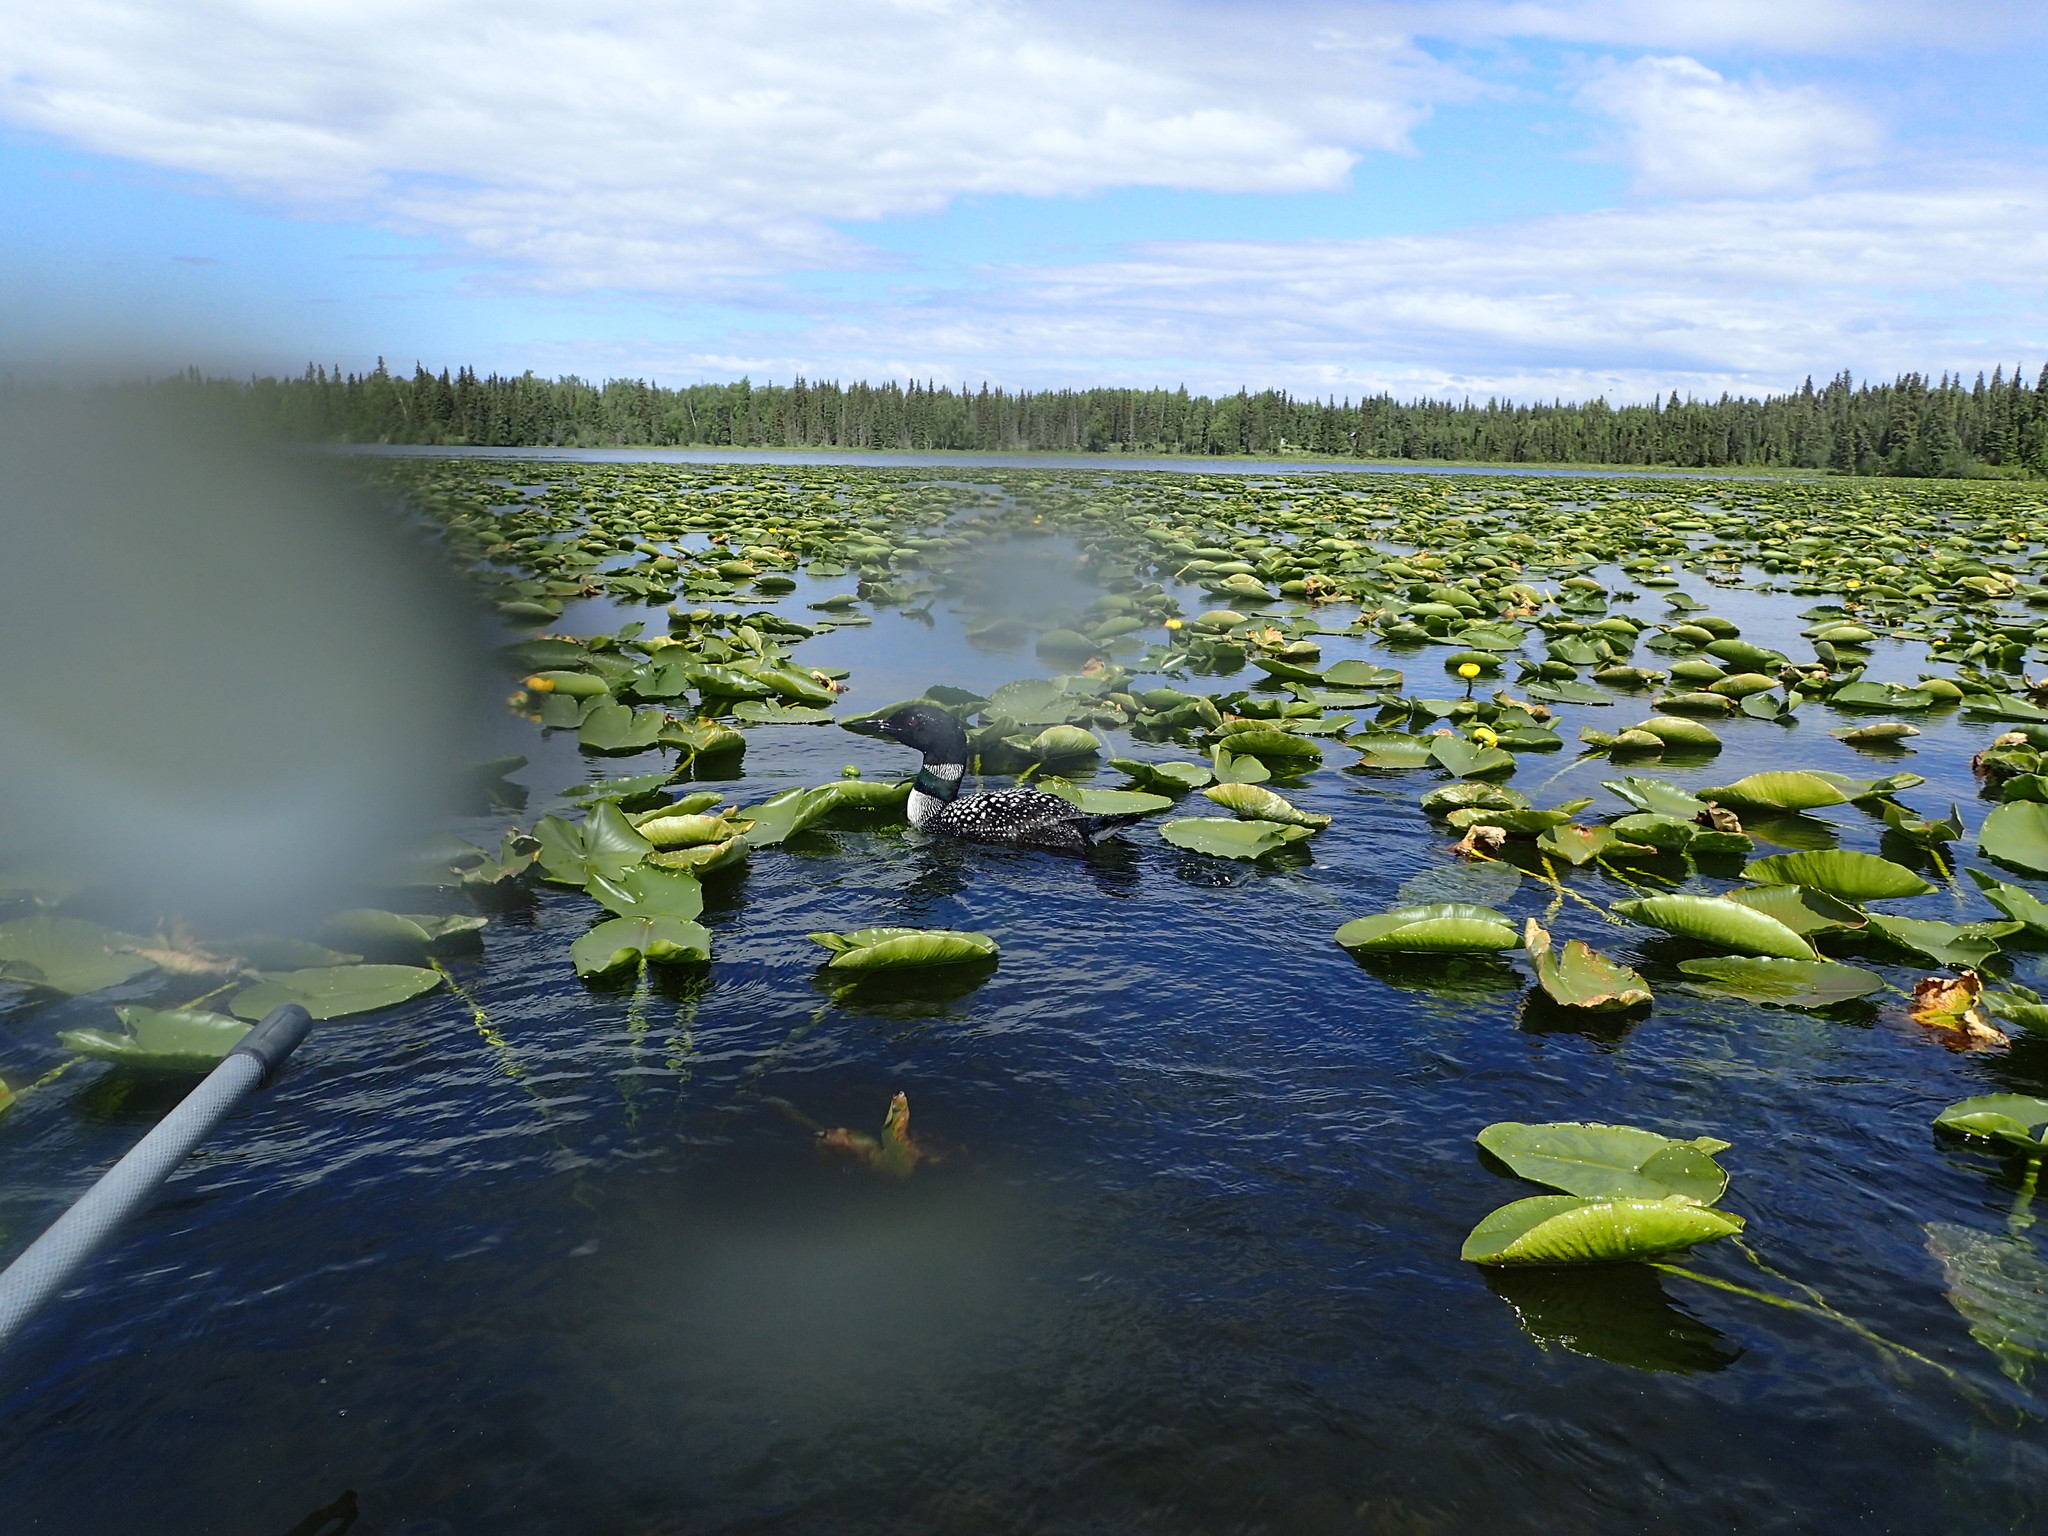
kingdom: Animalia
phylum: Chordata
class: Aves
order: Gaviiformes
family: Gaviidae
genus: Gavia
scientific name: Gavia immer
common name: Common loon
